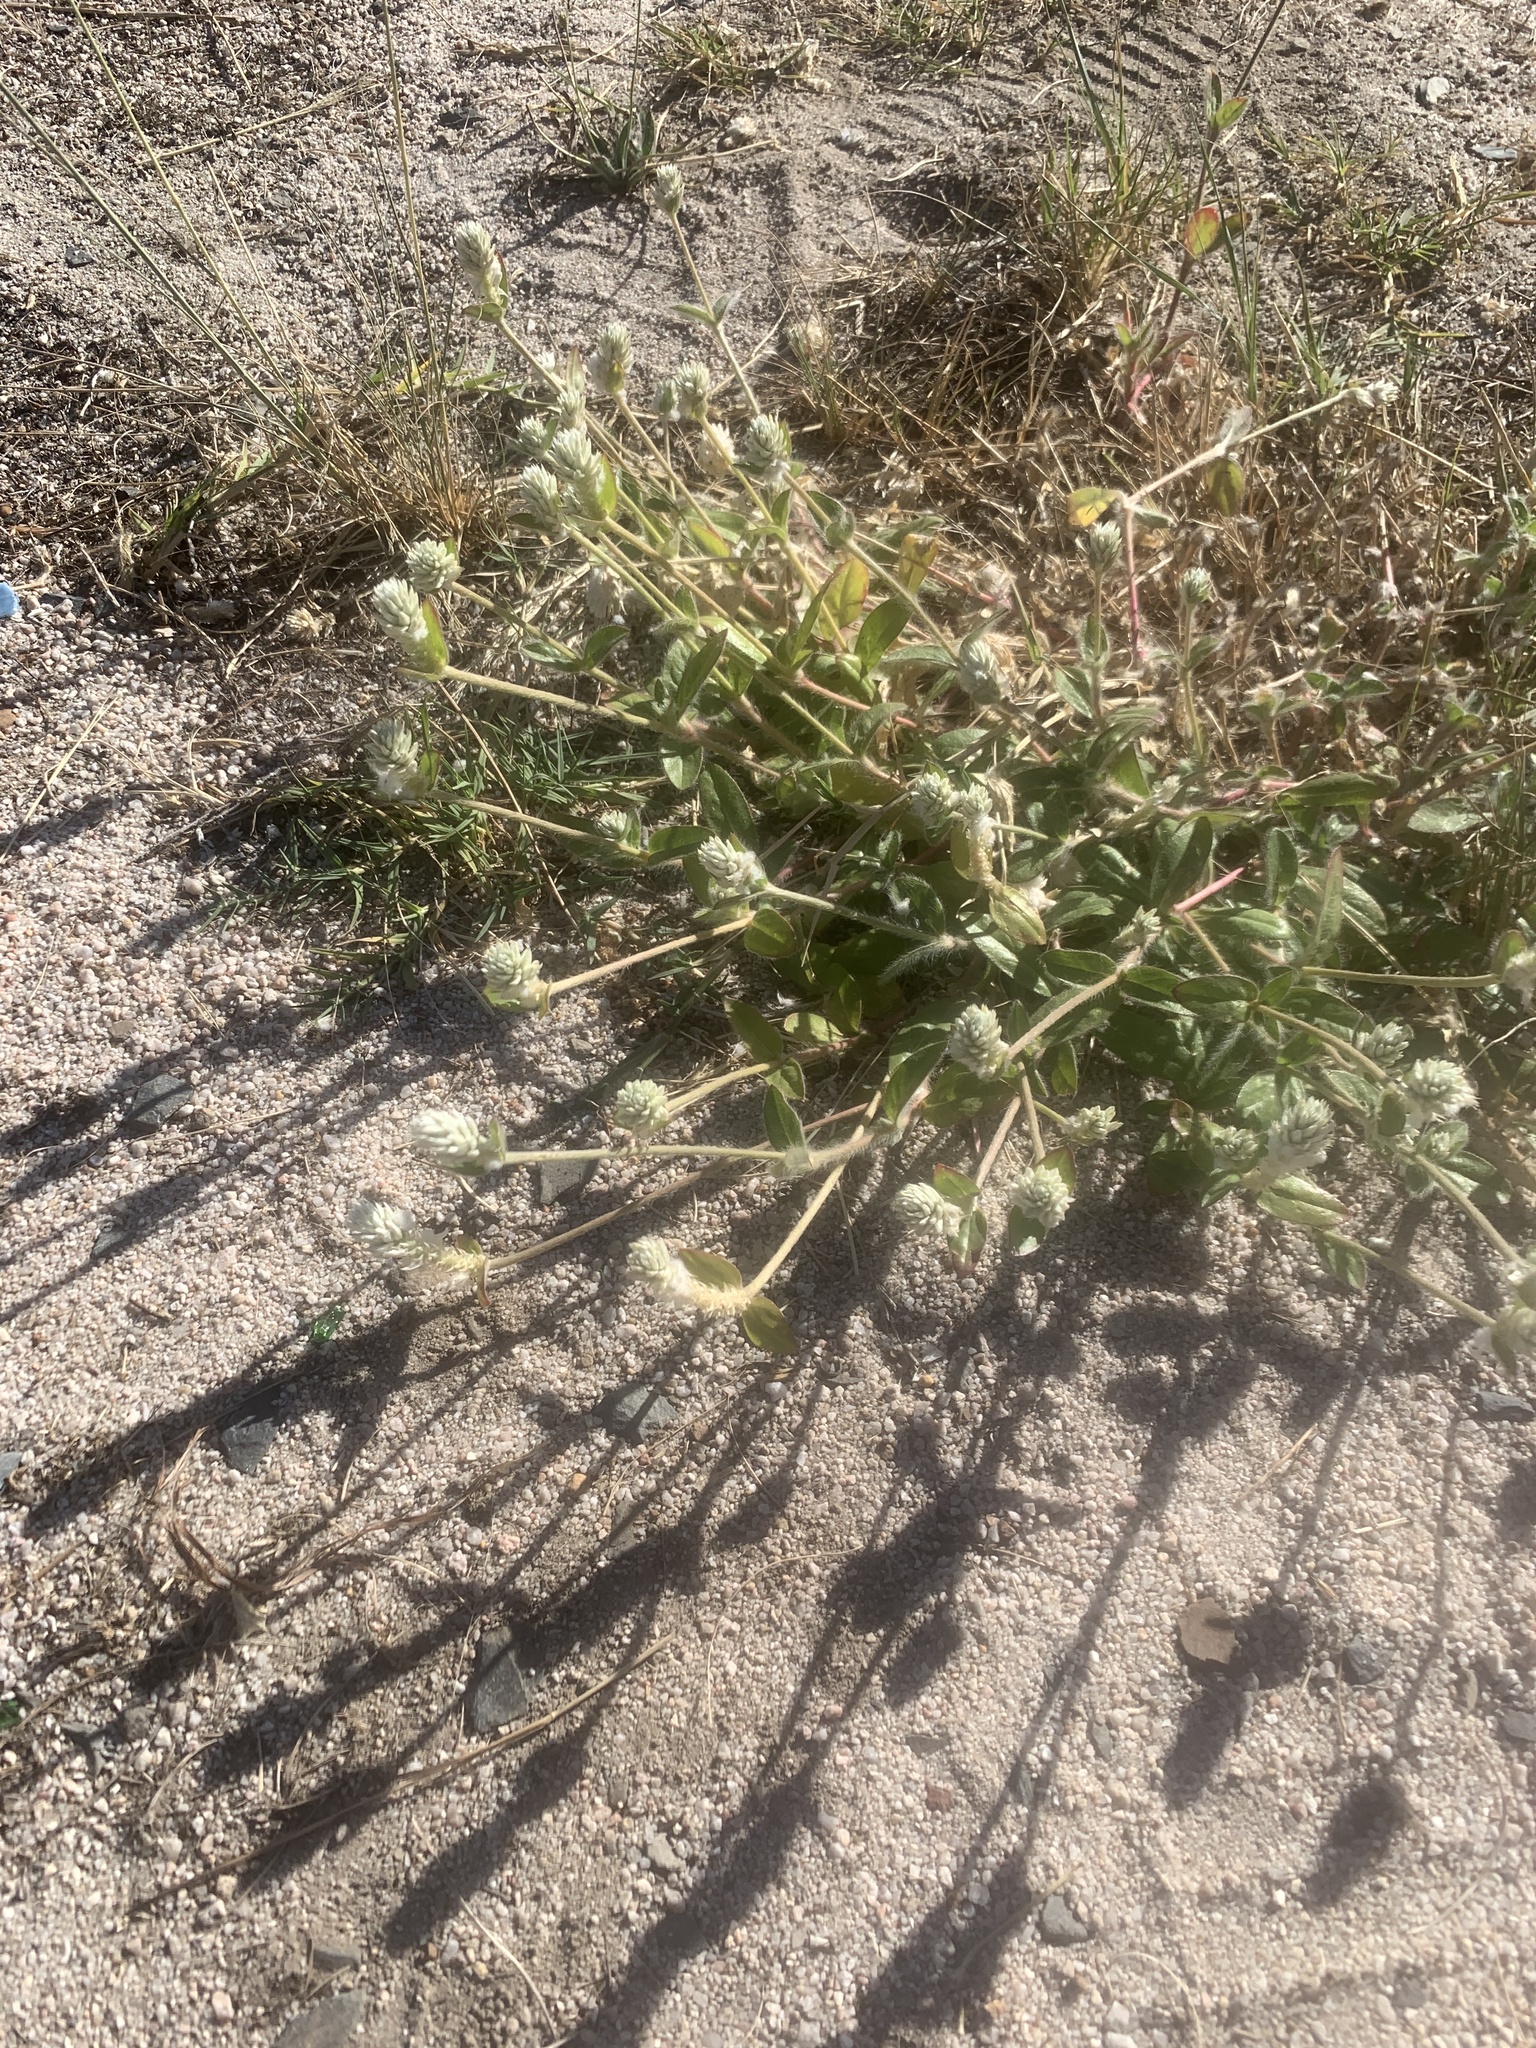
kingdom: Plantae
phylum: Tracheophyta
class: Magnoliopsida
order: Caryophyllales
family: Amaranthaceae
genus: Gomphrena
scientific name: Gomphrena celosioides
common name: Gomphrena-weed
